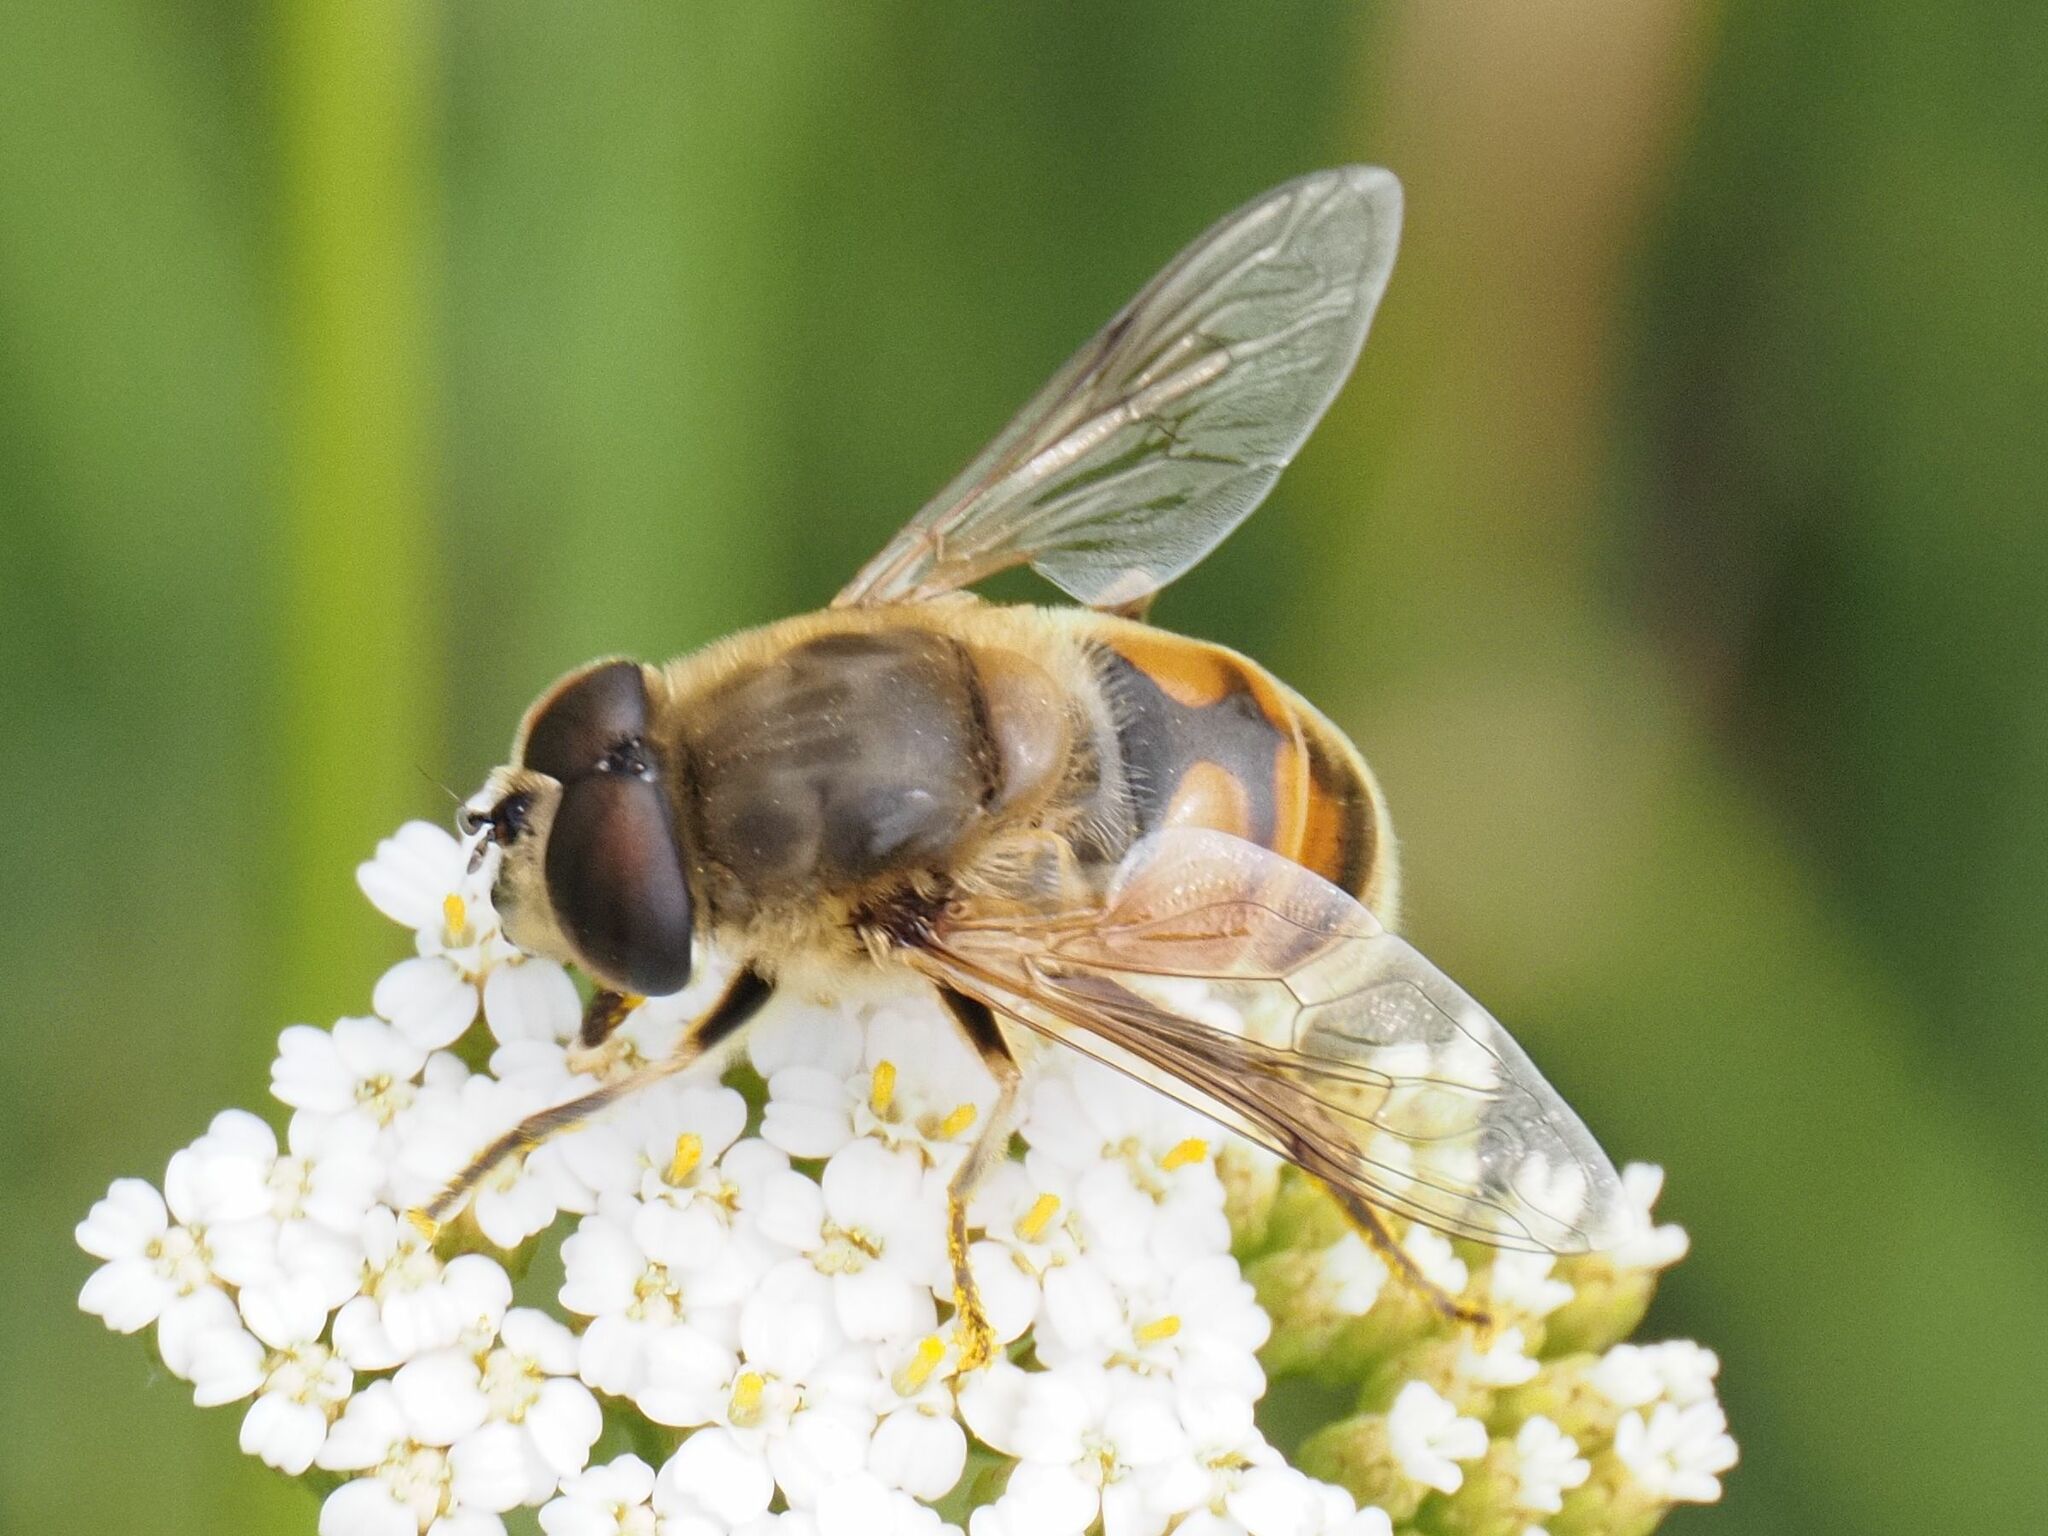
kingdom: Animalia
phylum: Arthropoda
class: Insecta
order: Diptera
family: Syrphidae
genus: Eristalis
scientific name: Eristalis tenax
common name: Drone fly
